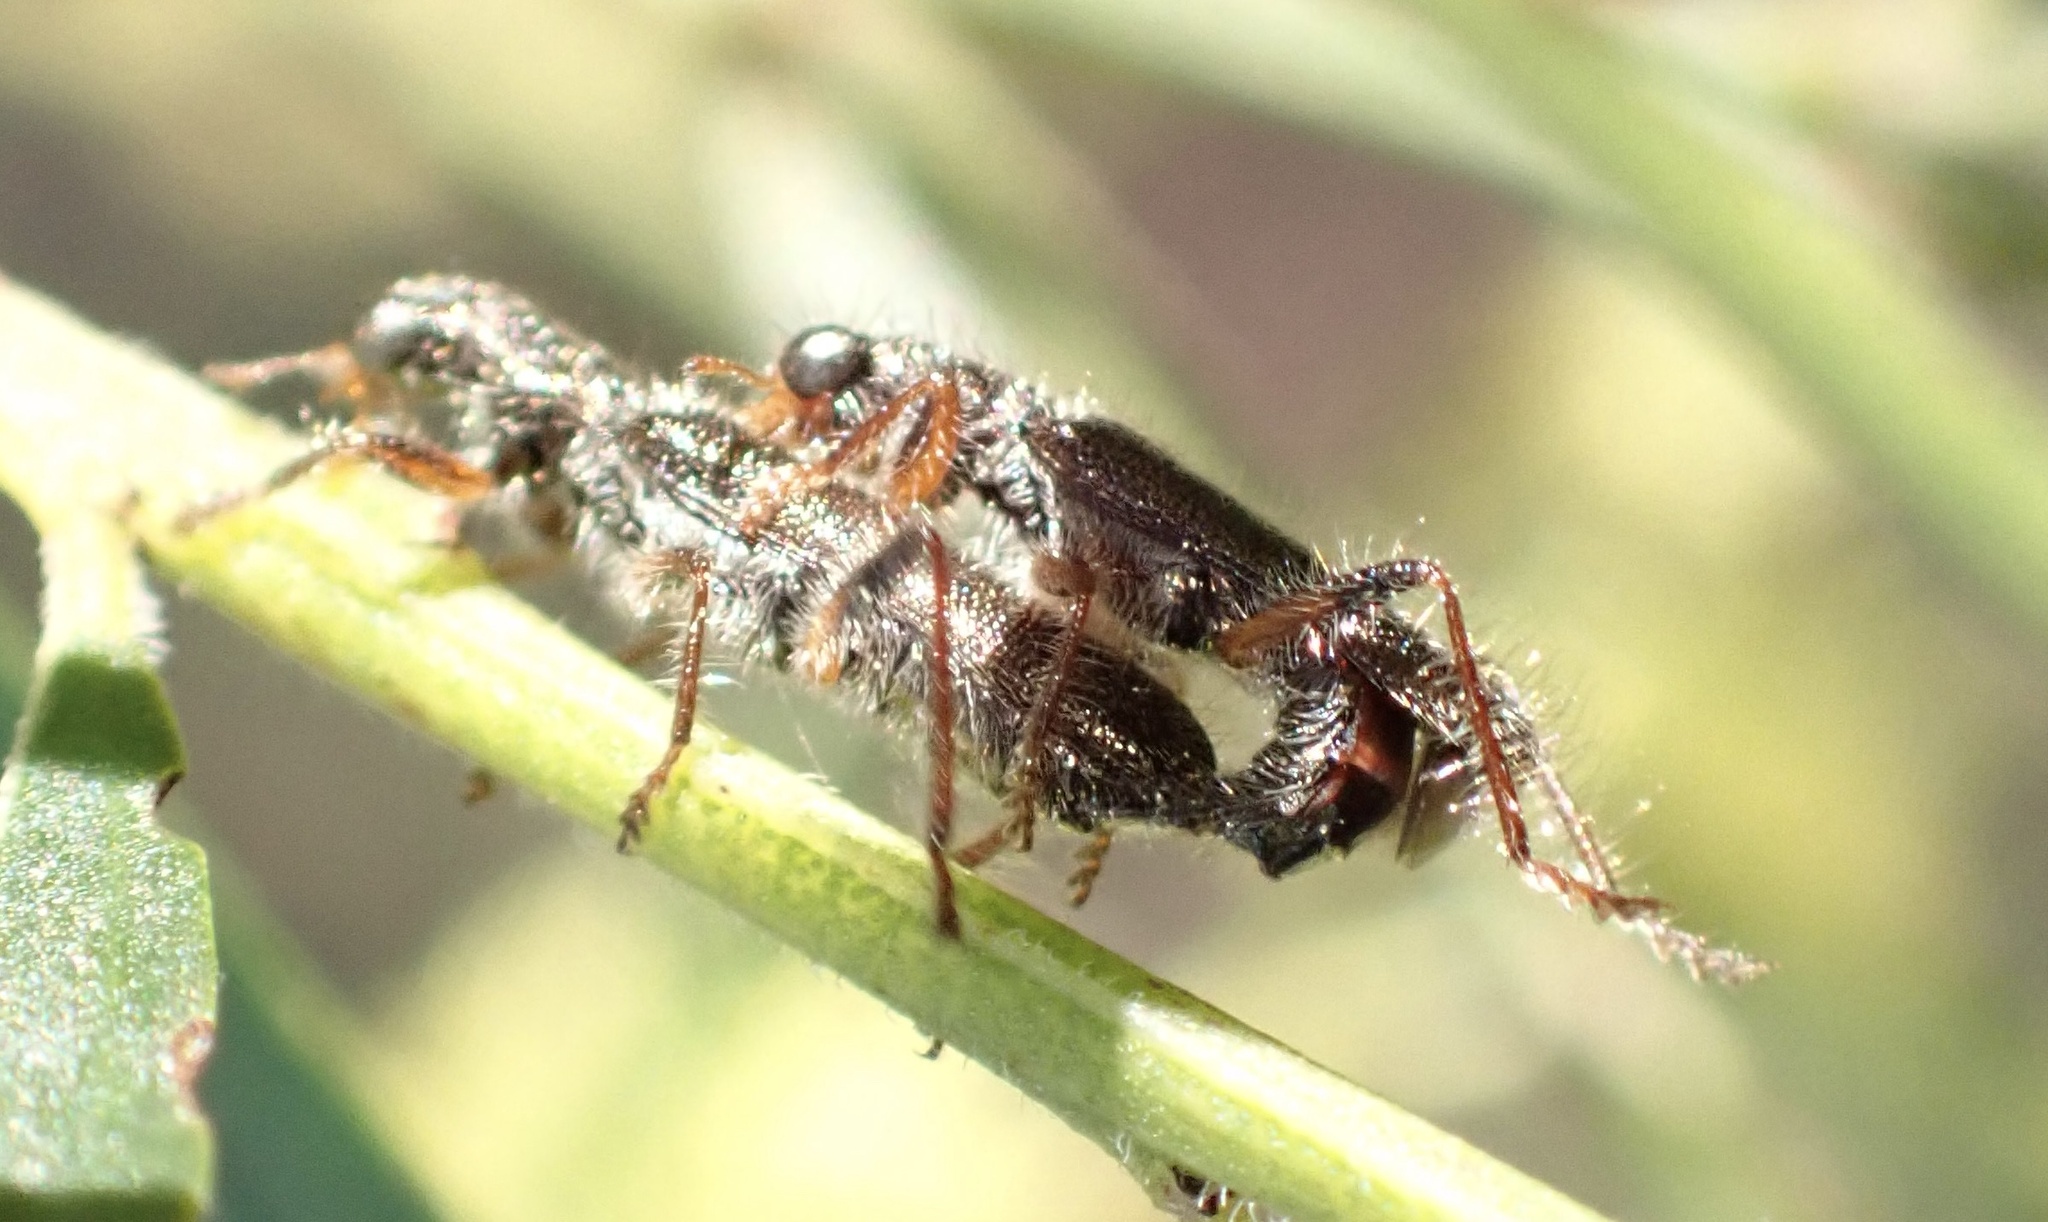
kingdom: Animalia
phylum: Arthropoda
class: Insecta
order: Coleoptera
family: Cleridae
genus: Lemidia
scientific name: Lemidia
